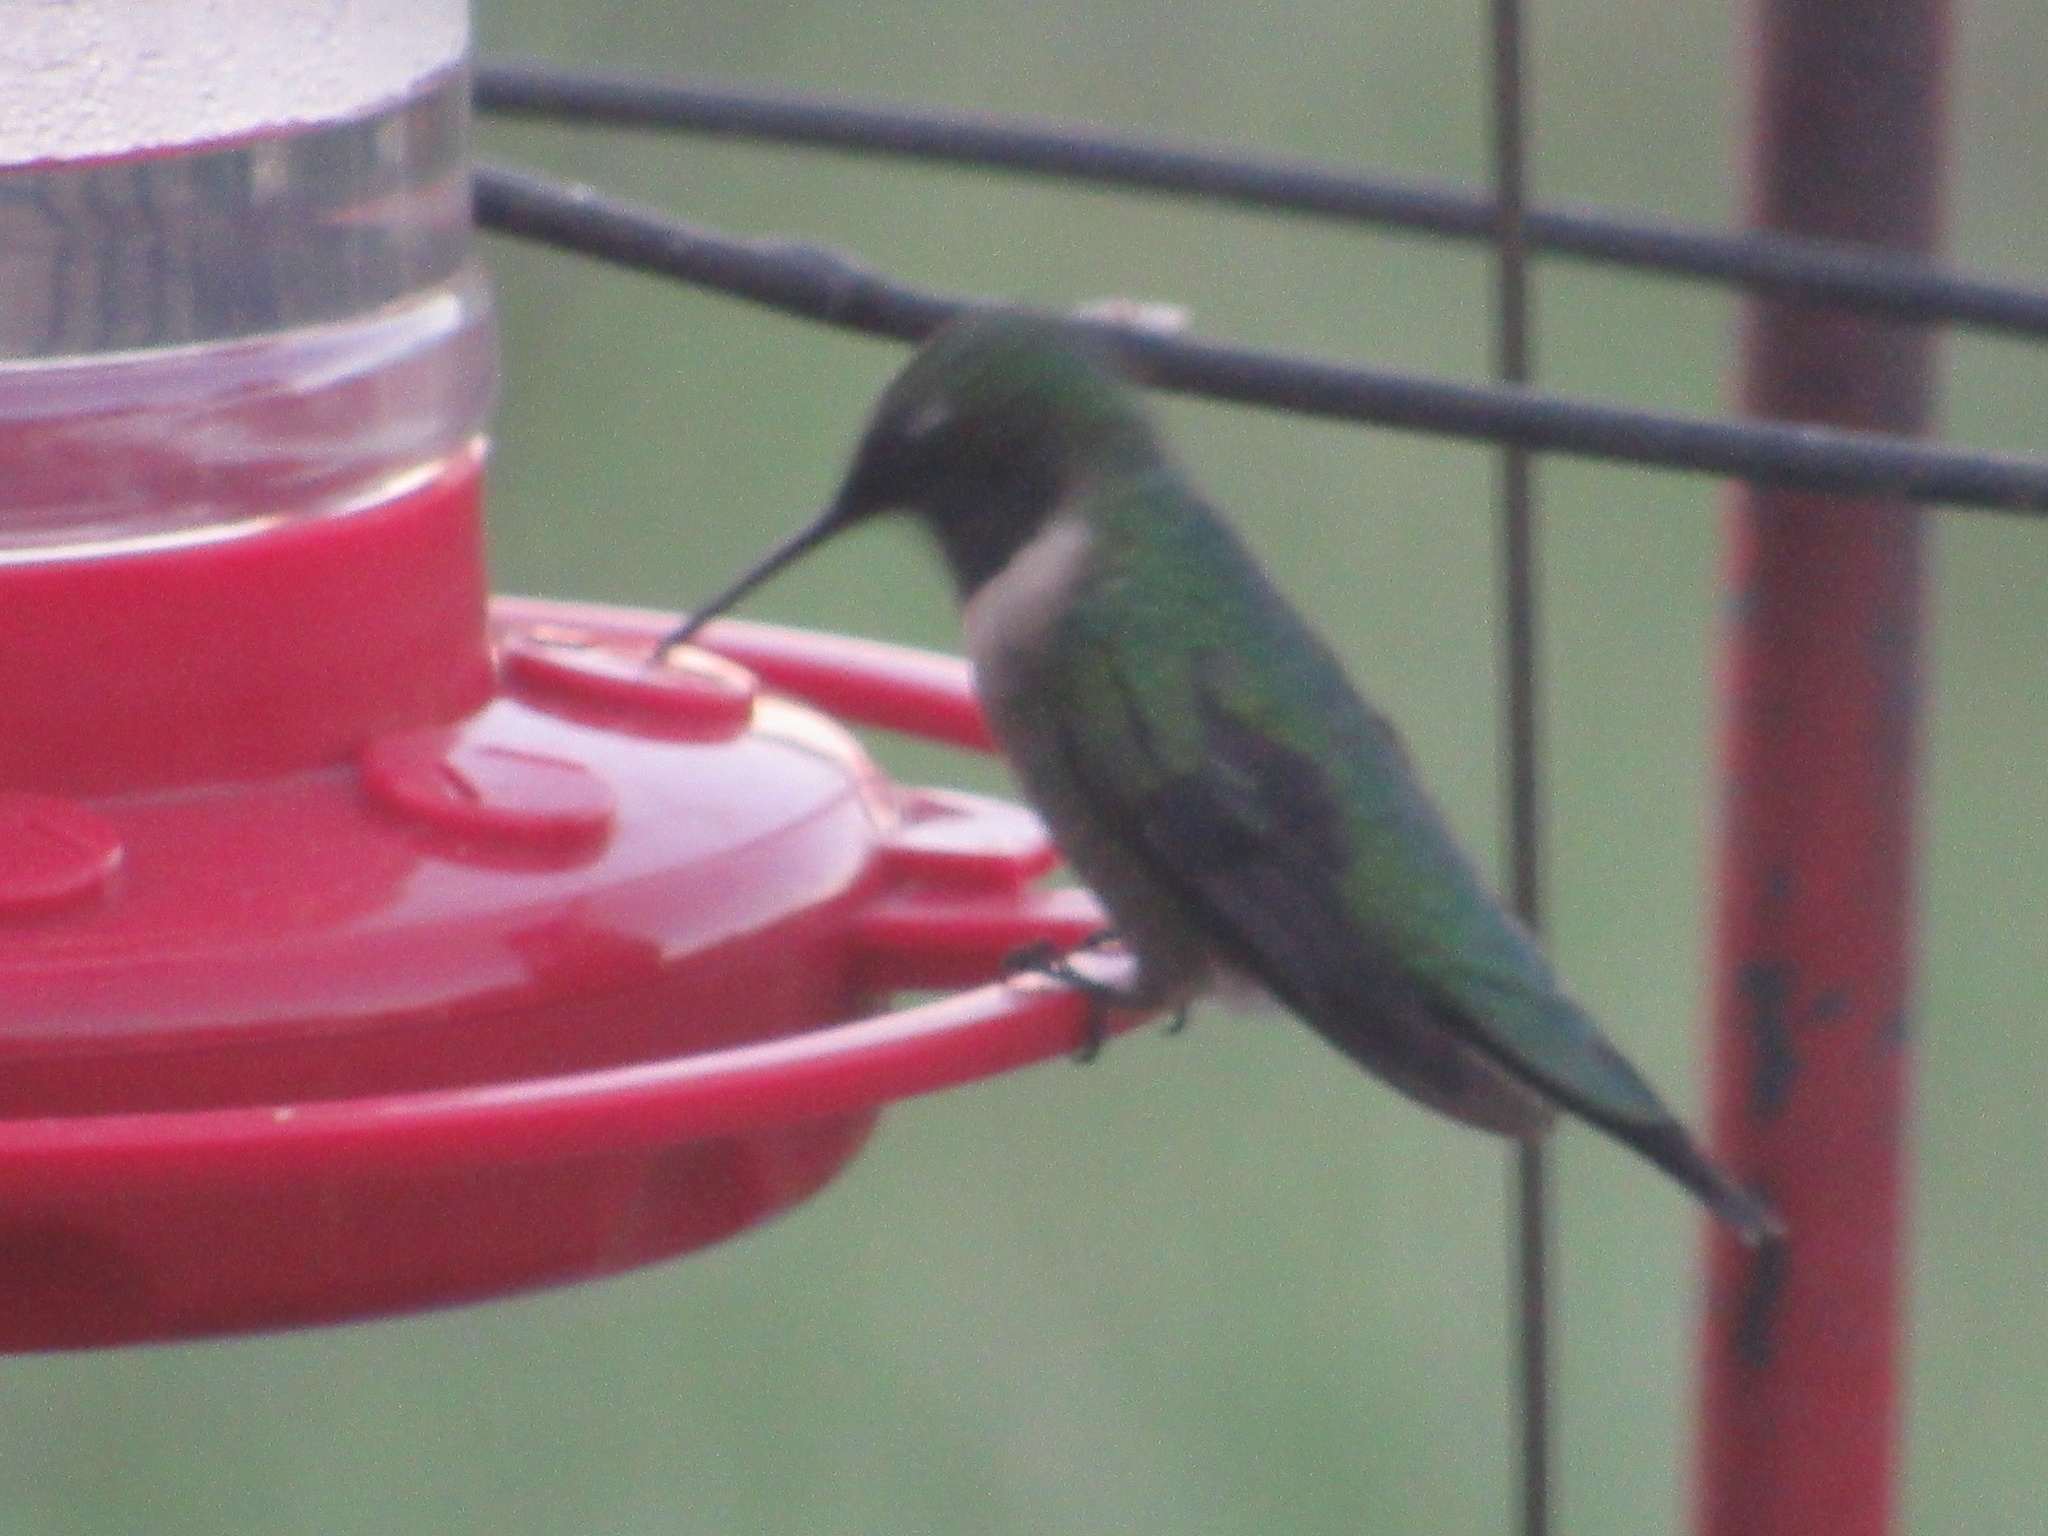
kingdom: Animalia
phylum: Chordata
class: Aves
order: Apodiformes
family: Trochilidae
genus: Archilochus
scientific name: Archilochus colubris
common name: Ruby-throated hummingbird
